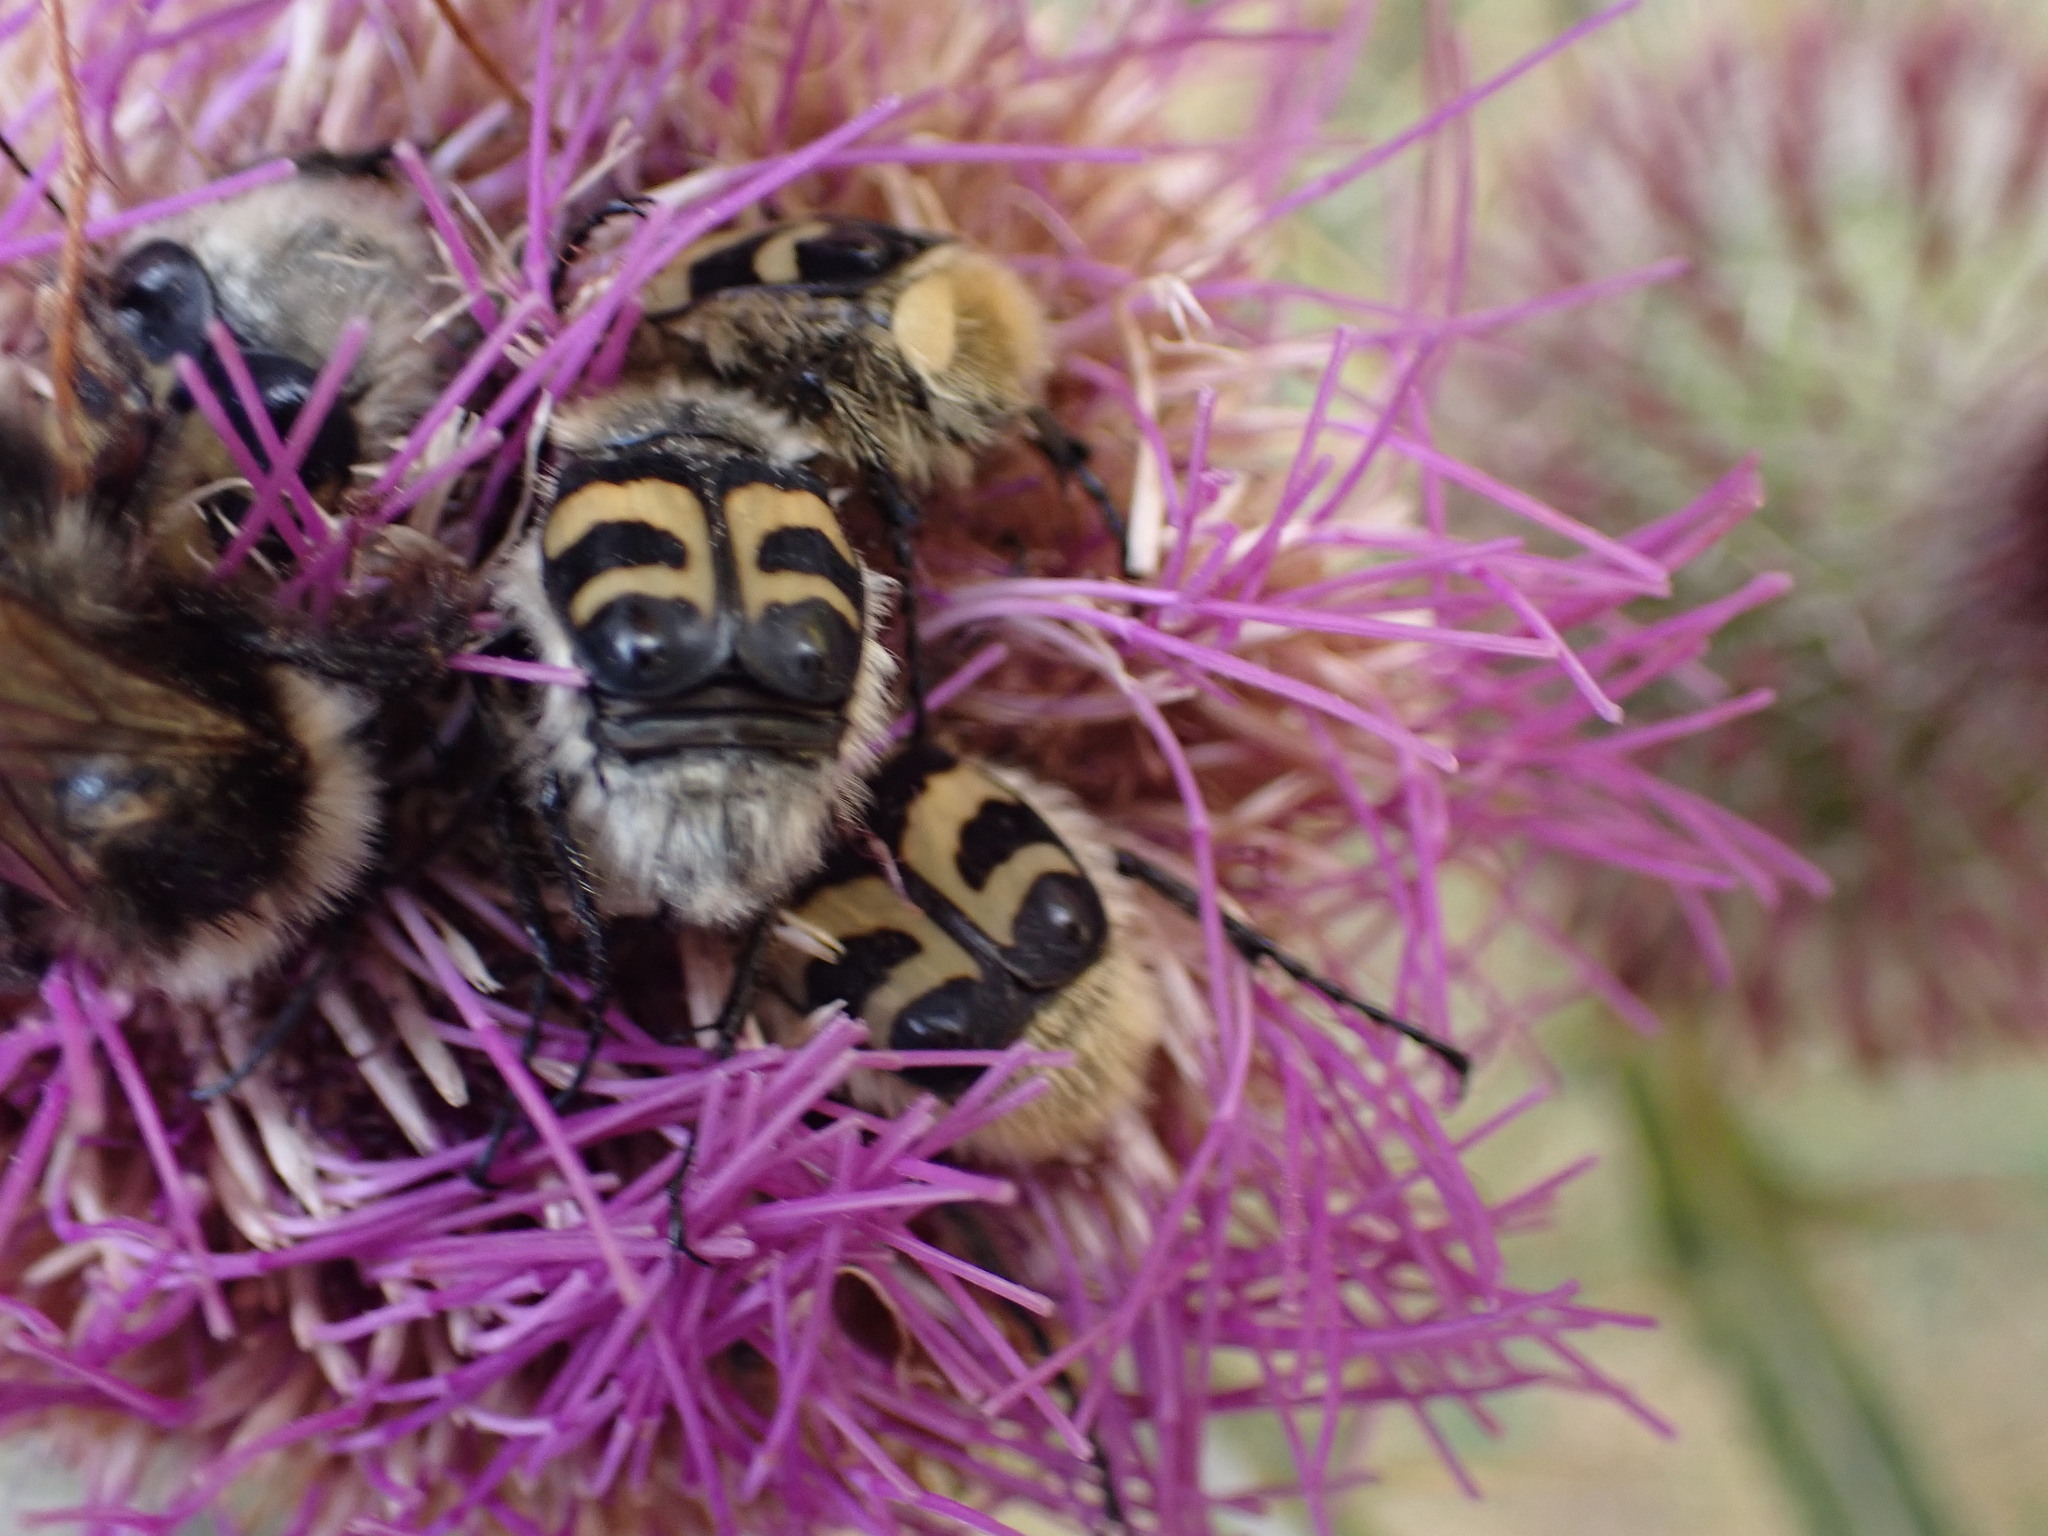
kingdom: Animalia
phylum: Arthropoda
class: Insecta
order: Coleoptera
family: Scarabaeidae
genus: Trichius
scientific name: Trichius fasciatus
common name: Bee beetle
